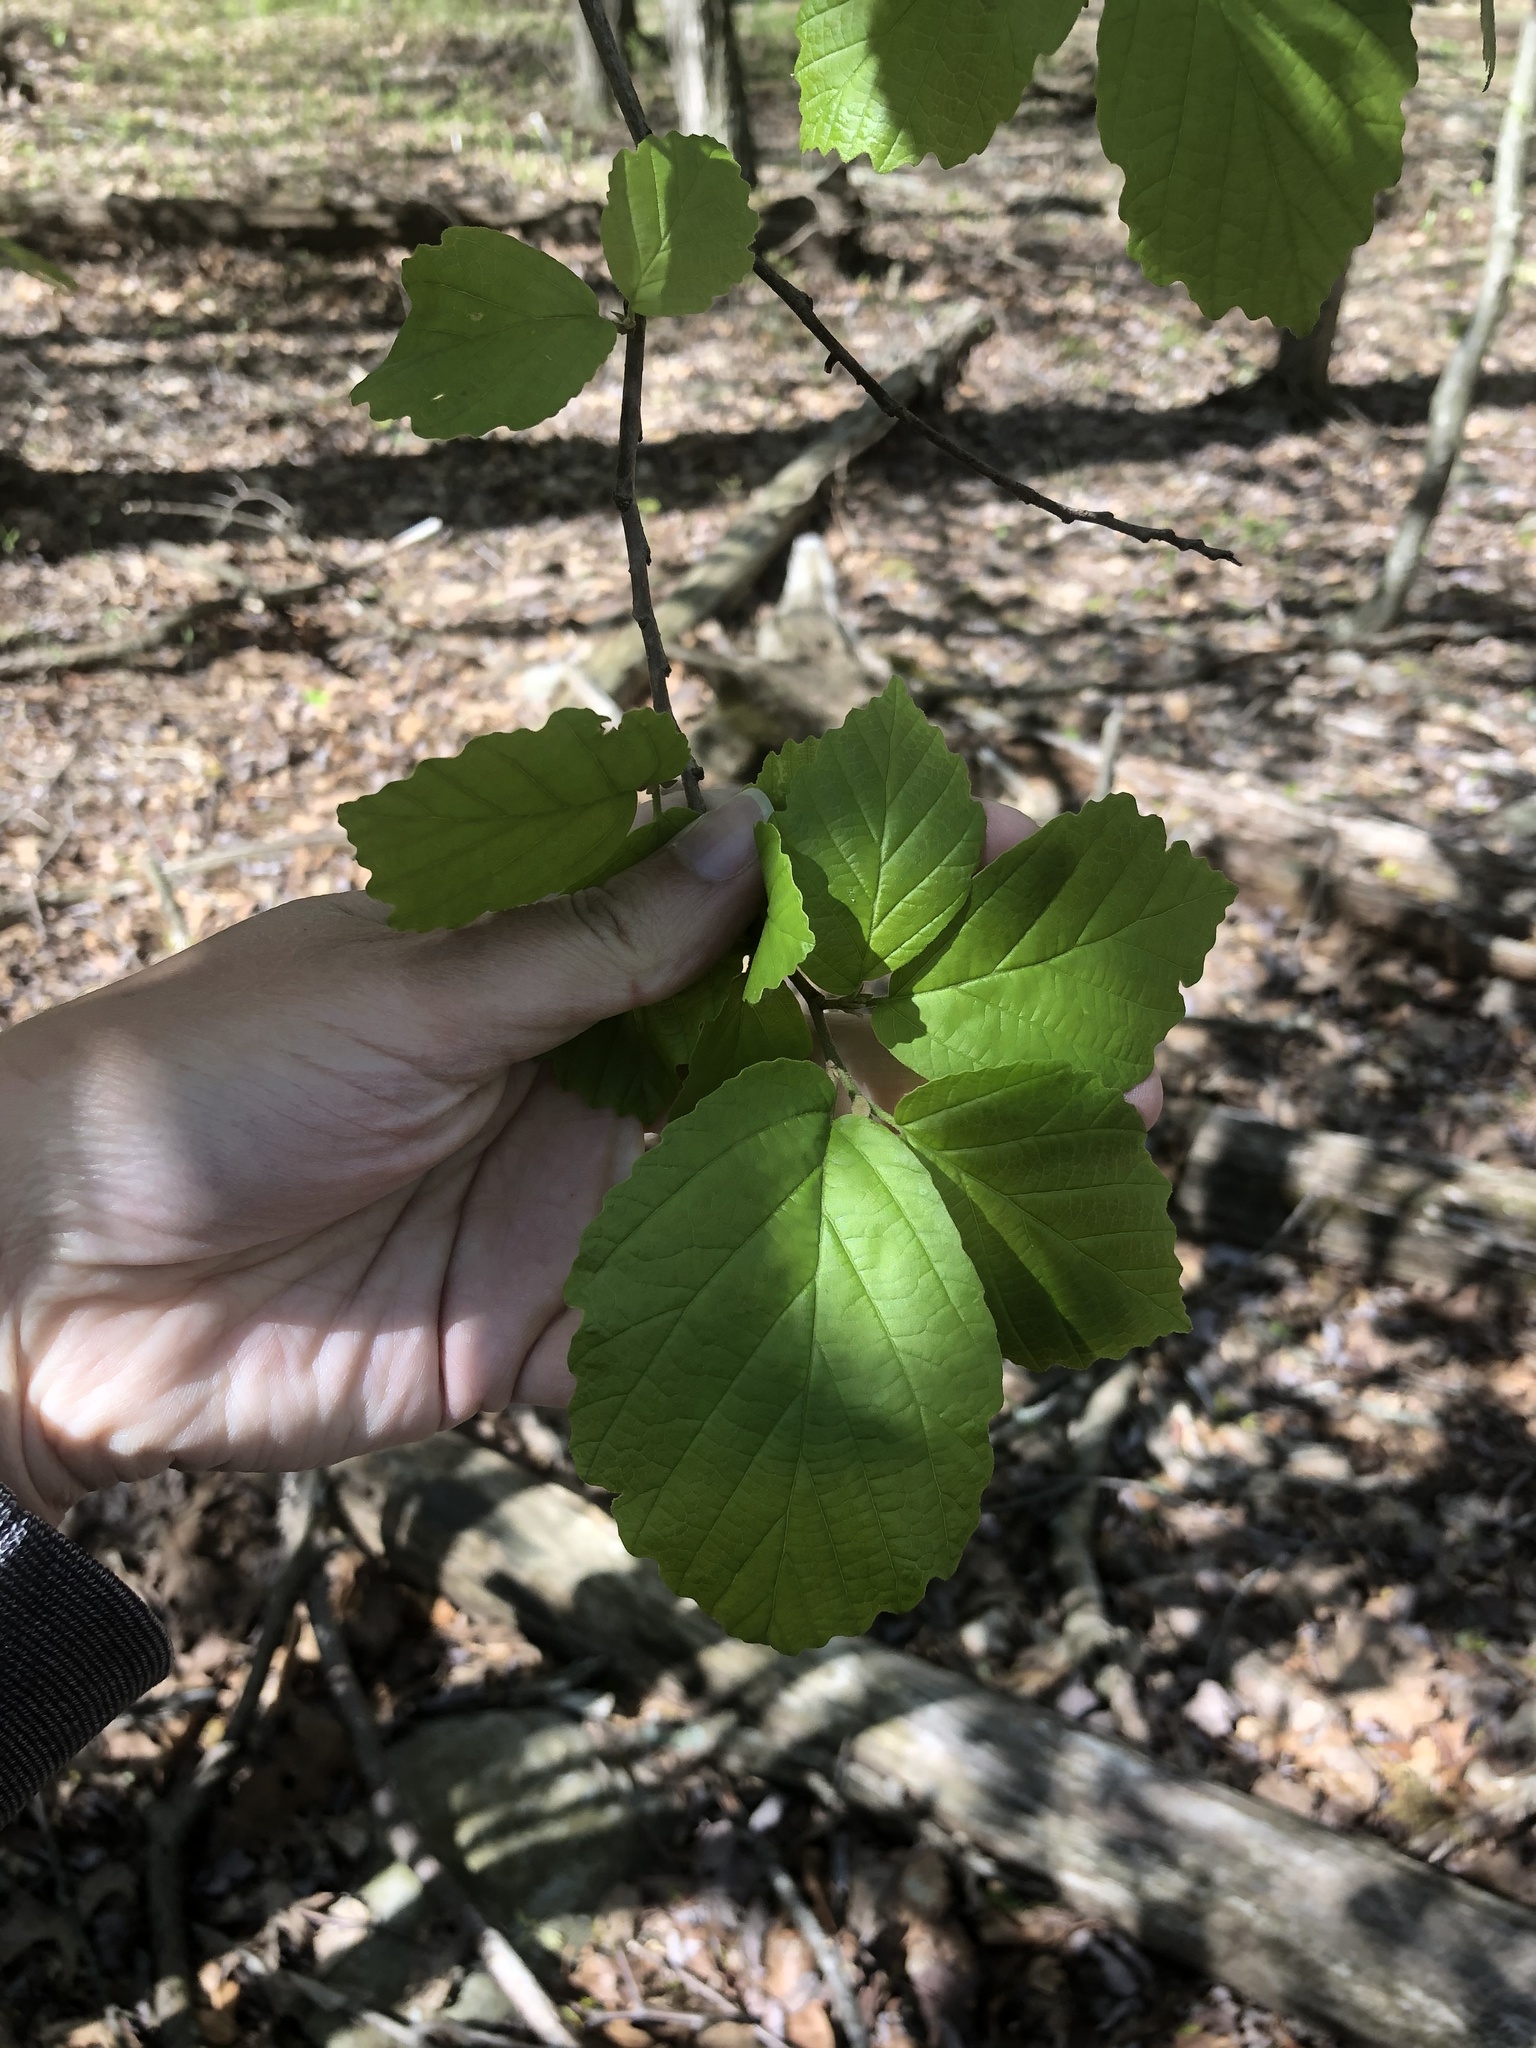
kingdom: Plantae
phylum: Tracheophyta
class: Magnoliopsida
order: Saxifragales
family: Hamamelidaceae
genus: Hamamelis
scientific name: Hamamelis virginiana
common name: Witch-hazel
